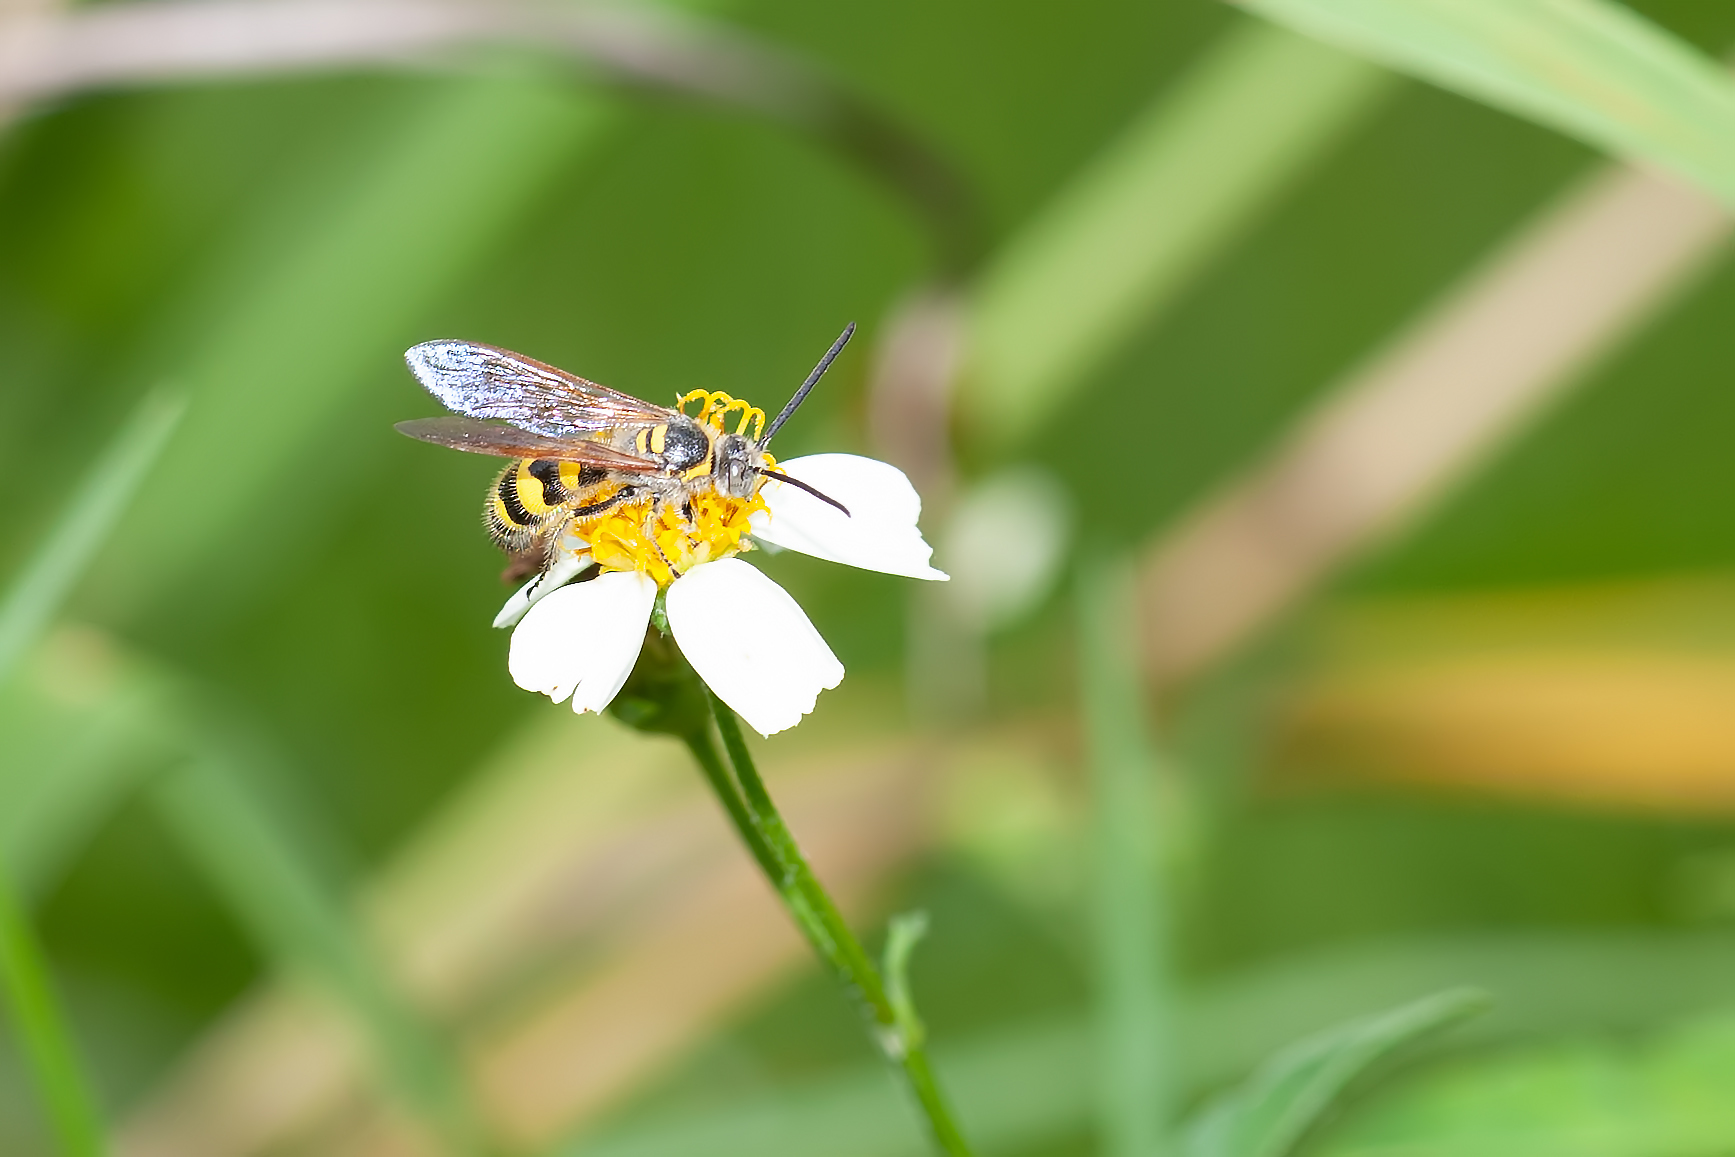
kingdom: Animalia
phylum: Arthropoda
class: Insecta
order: Hymenoptera
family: Scoliidae
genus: Dielis
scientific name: Dielis
